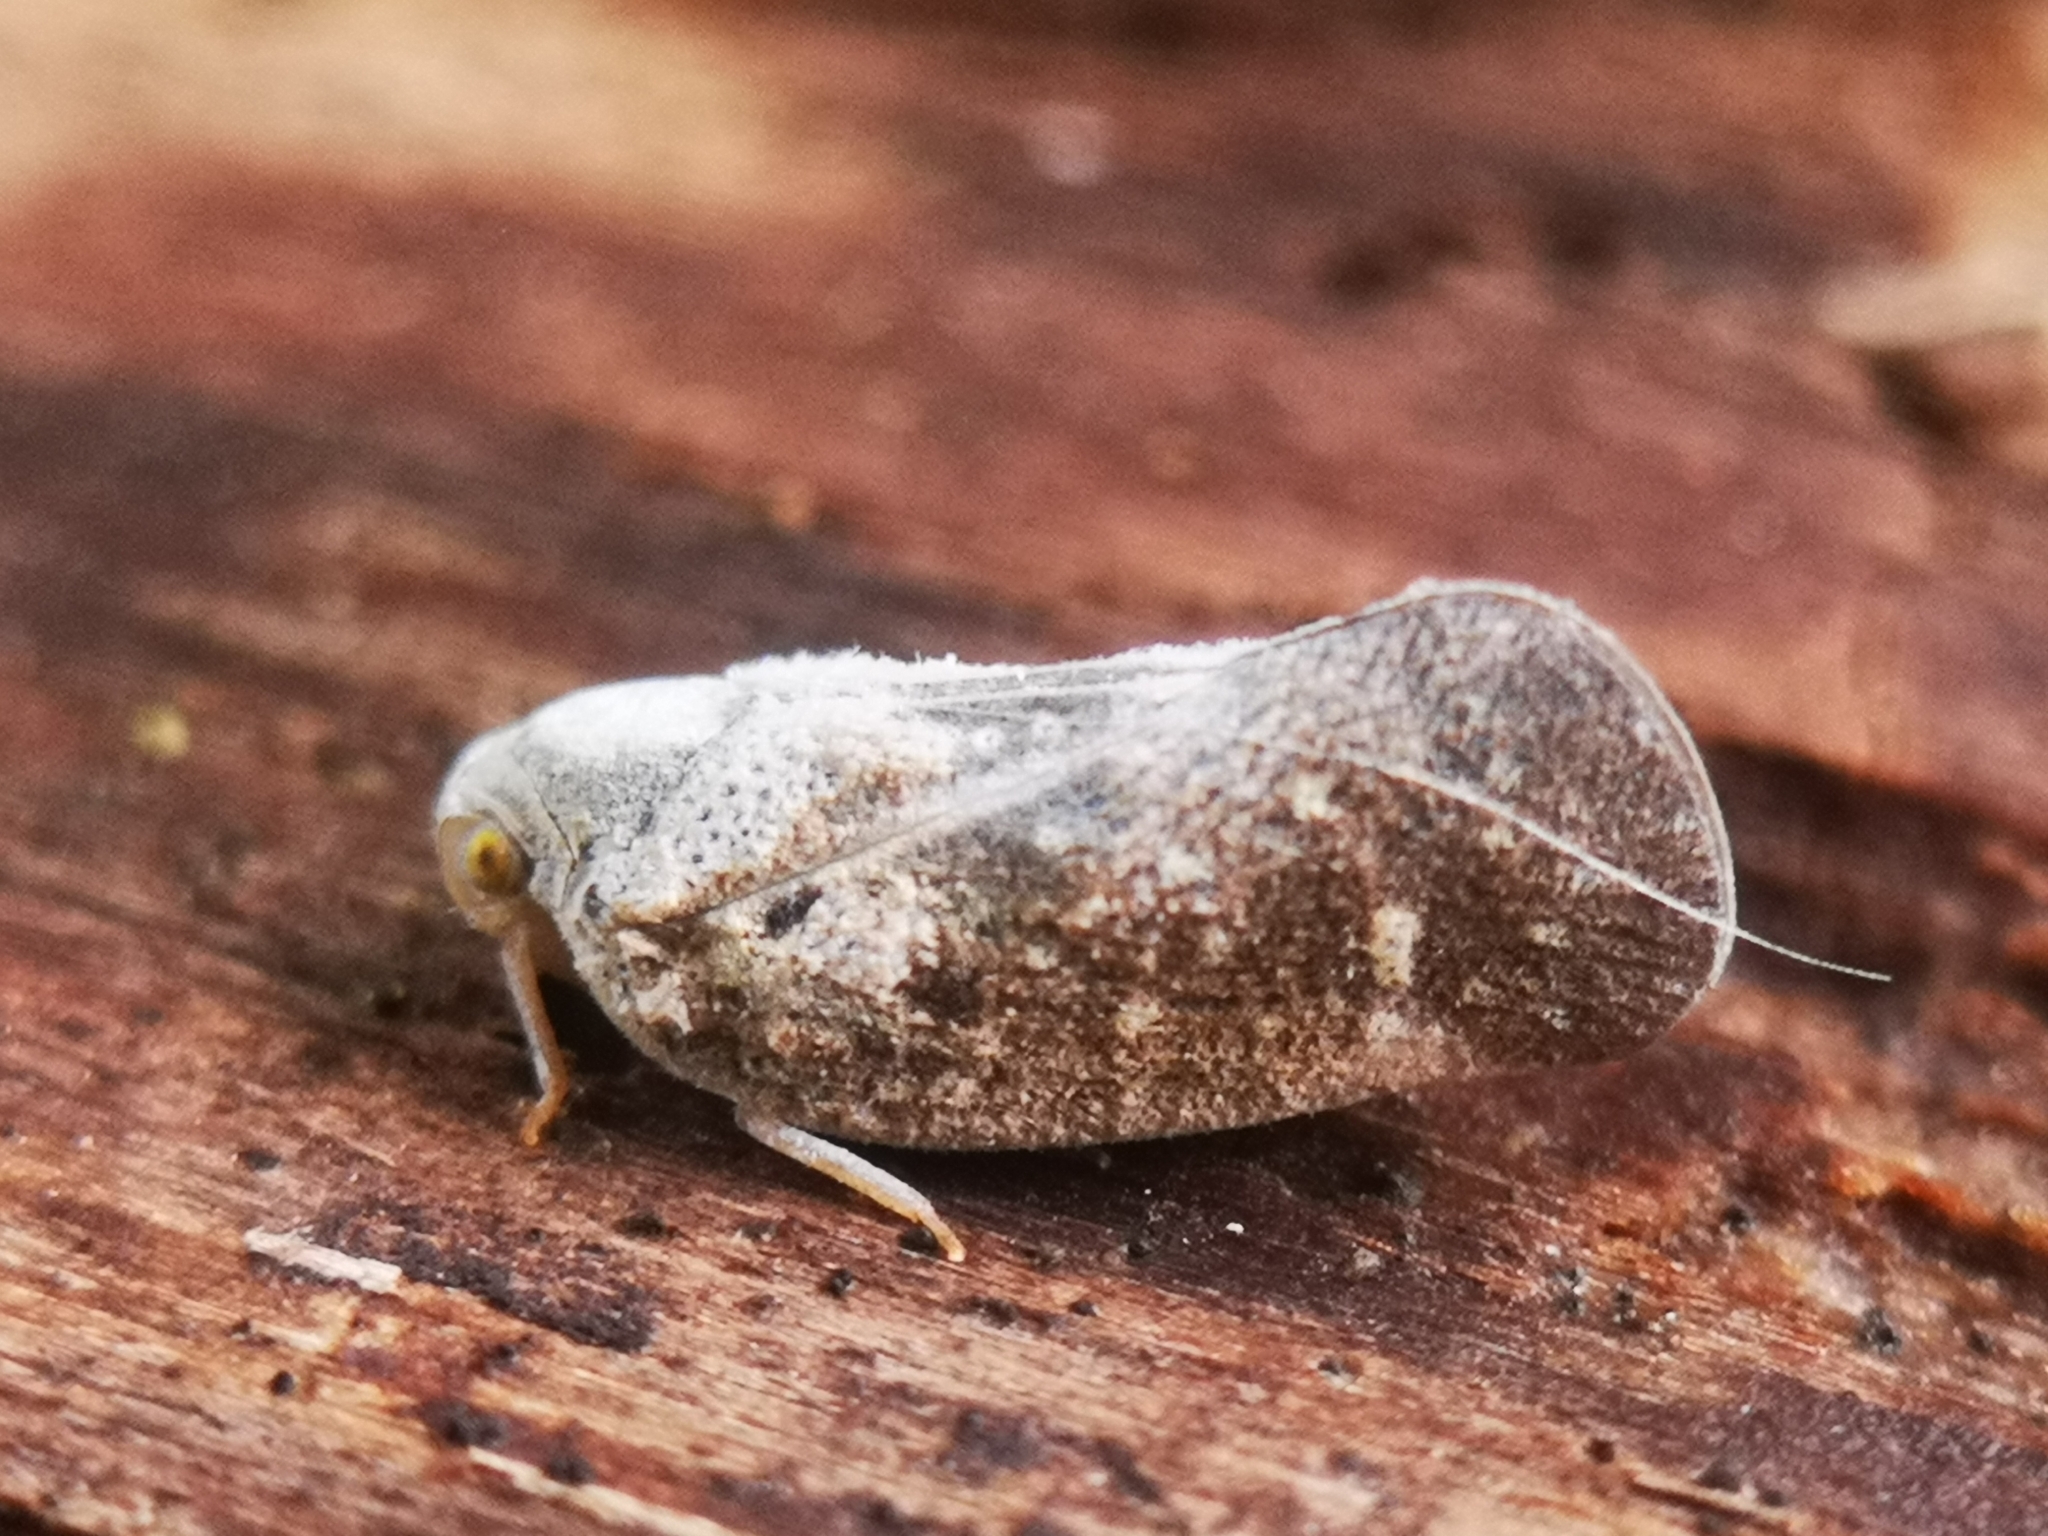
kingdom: Animalia
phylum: Arthropoda
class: Insecta
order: Hemiptera
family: Flatidae
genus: Metcalfa
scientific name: Metcalfa pruinosa
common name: Citrus flatid planthopper
